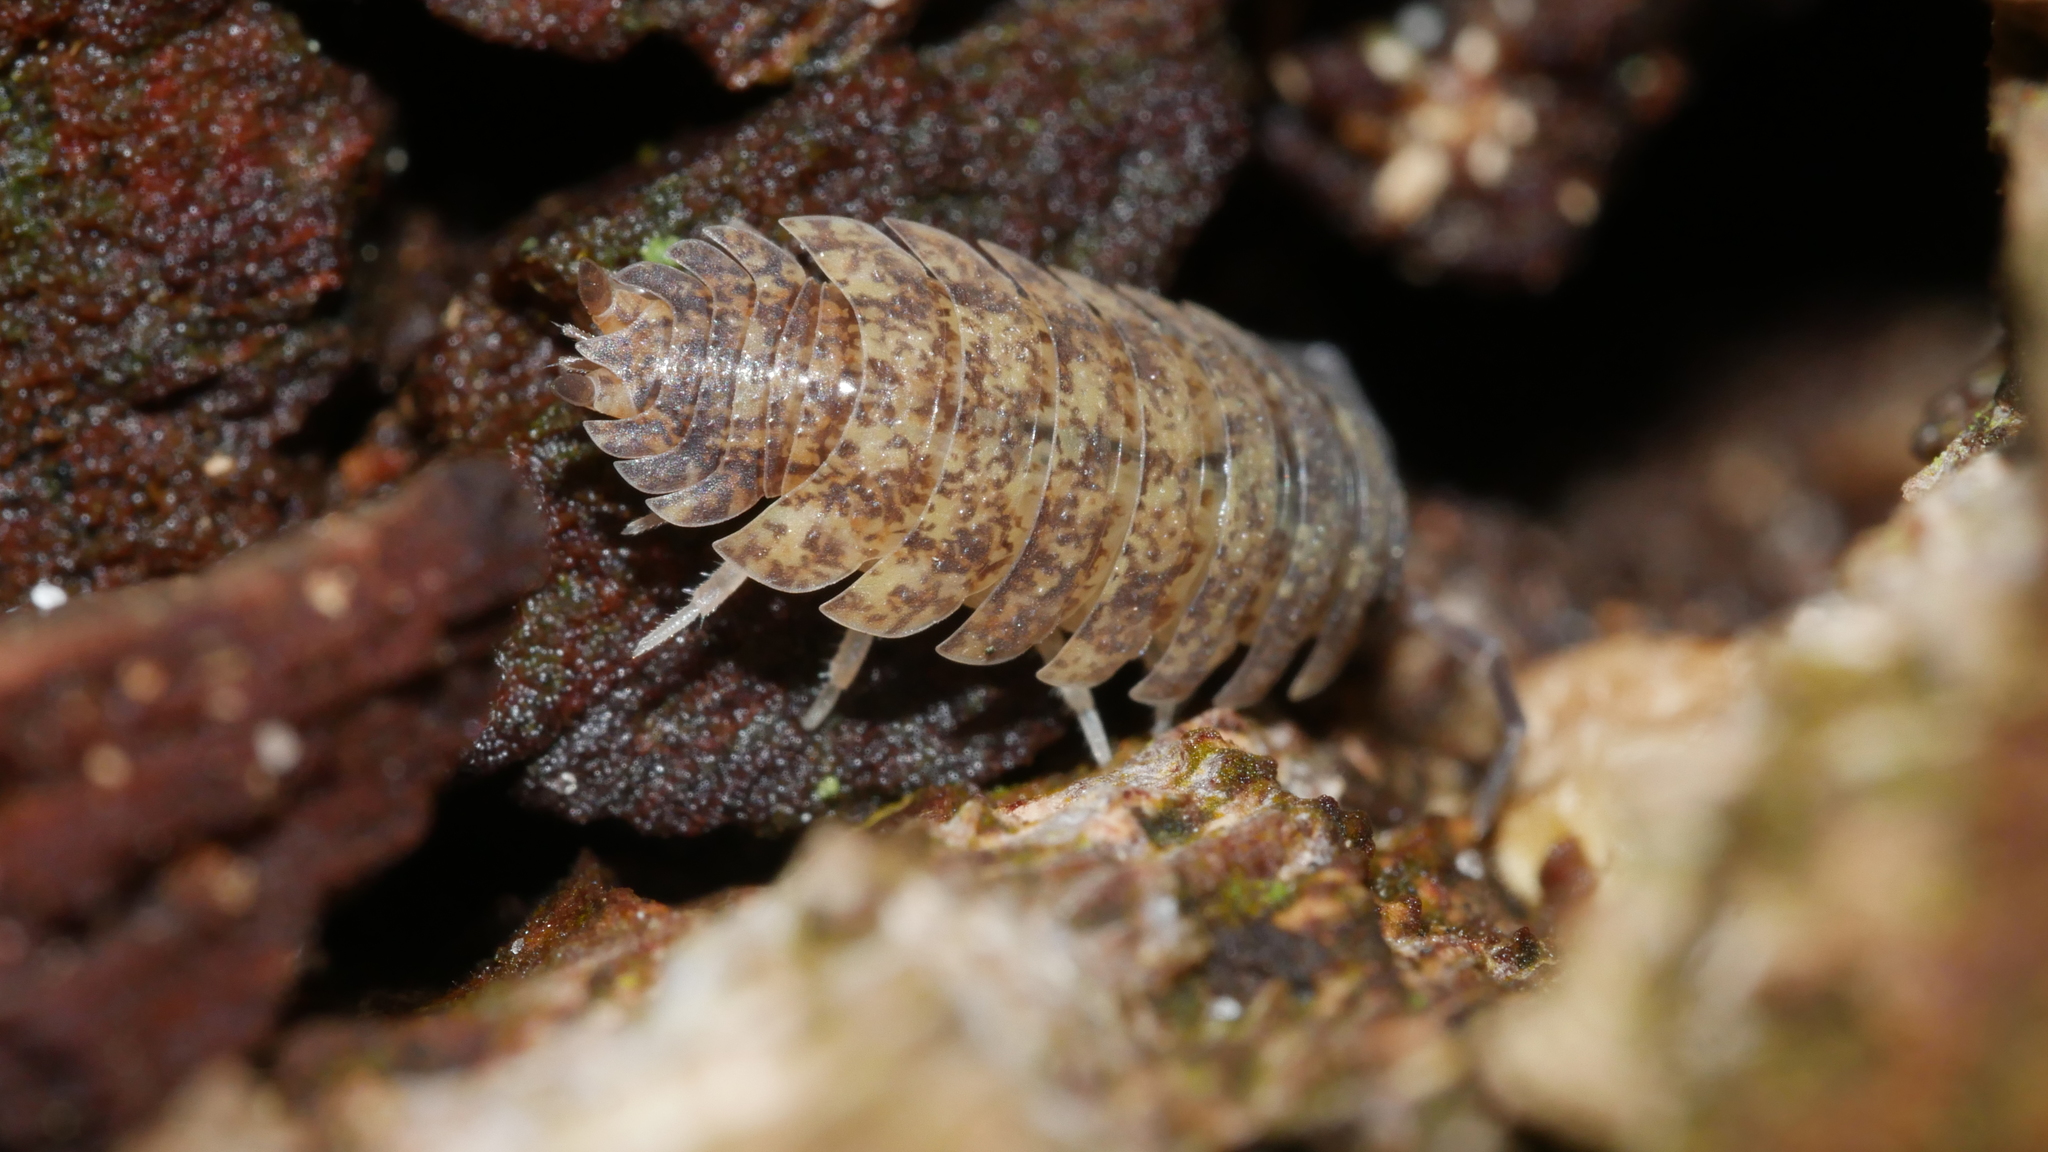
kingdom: Animalia
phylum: Arthropoda
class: Malacostraca
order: Isopoda
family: Porcellionidae
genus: Porcellio
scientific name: Porcellio scaber
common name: Common rough woodlouse
